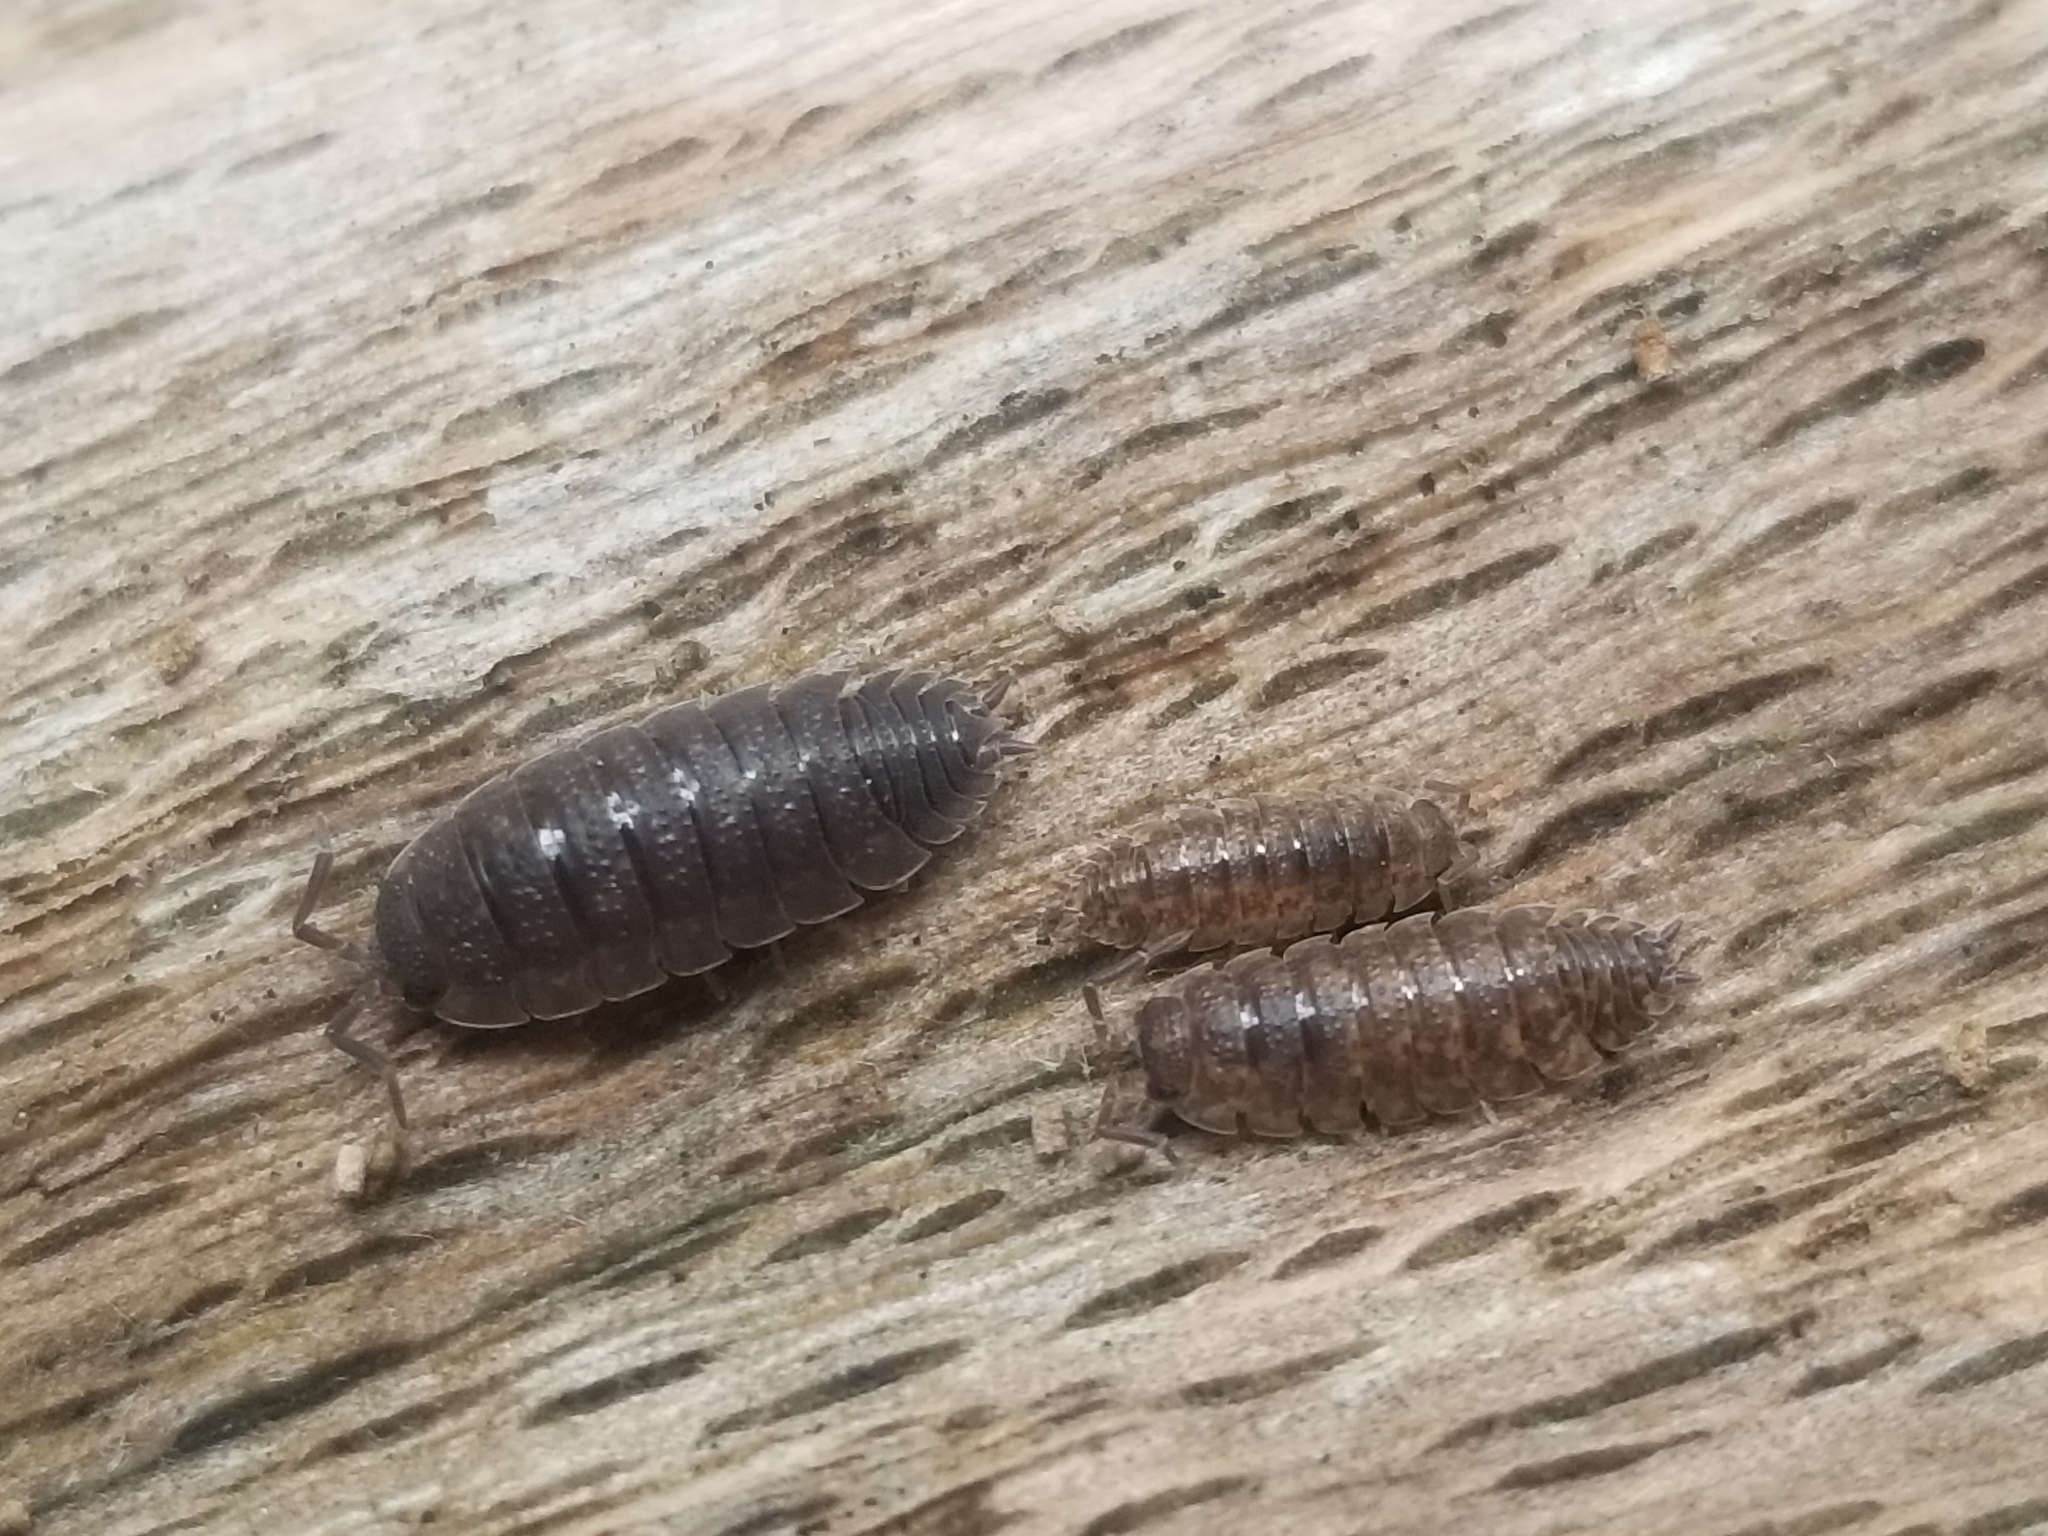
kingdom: Animalia
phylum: Arthropoda
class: Malacostraca
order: Isopoda
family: Porcellionidae
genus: Porcellio
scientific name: Porcellio scaber
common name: Common rough woodlouse
